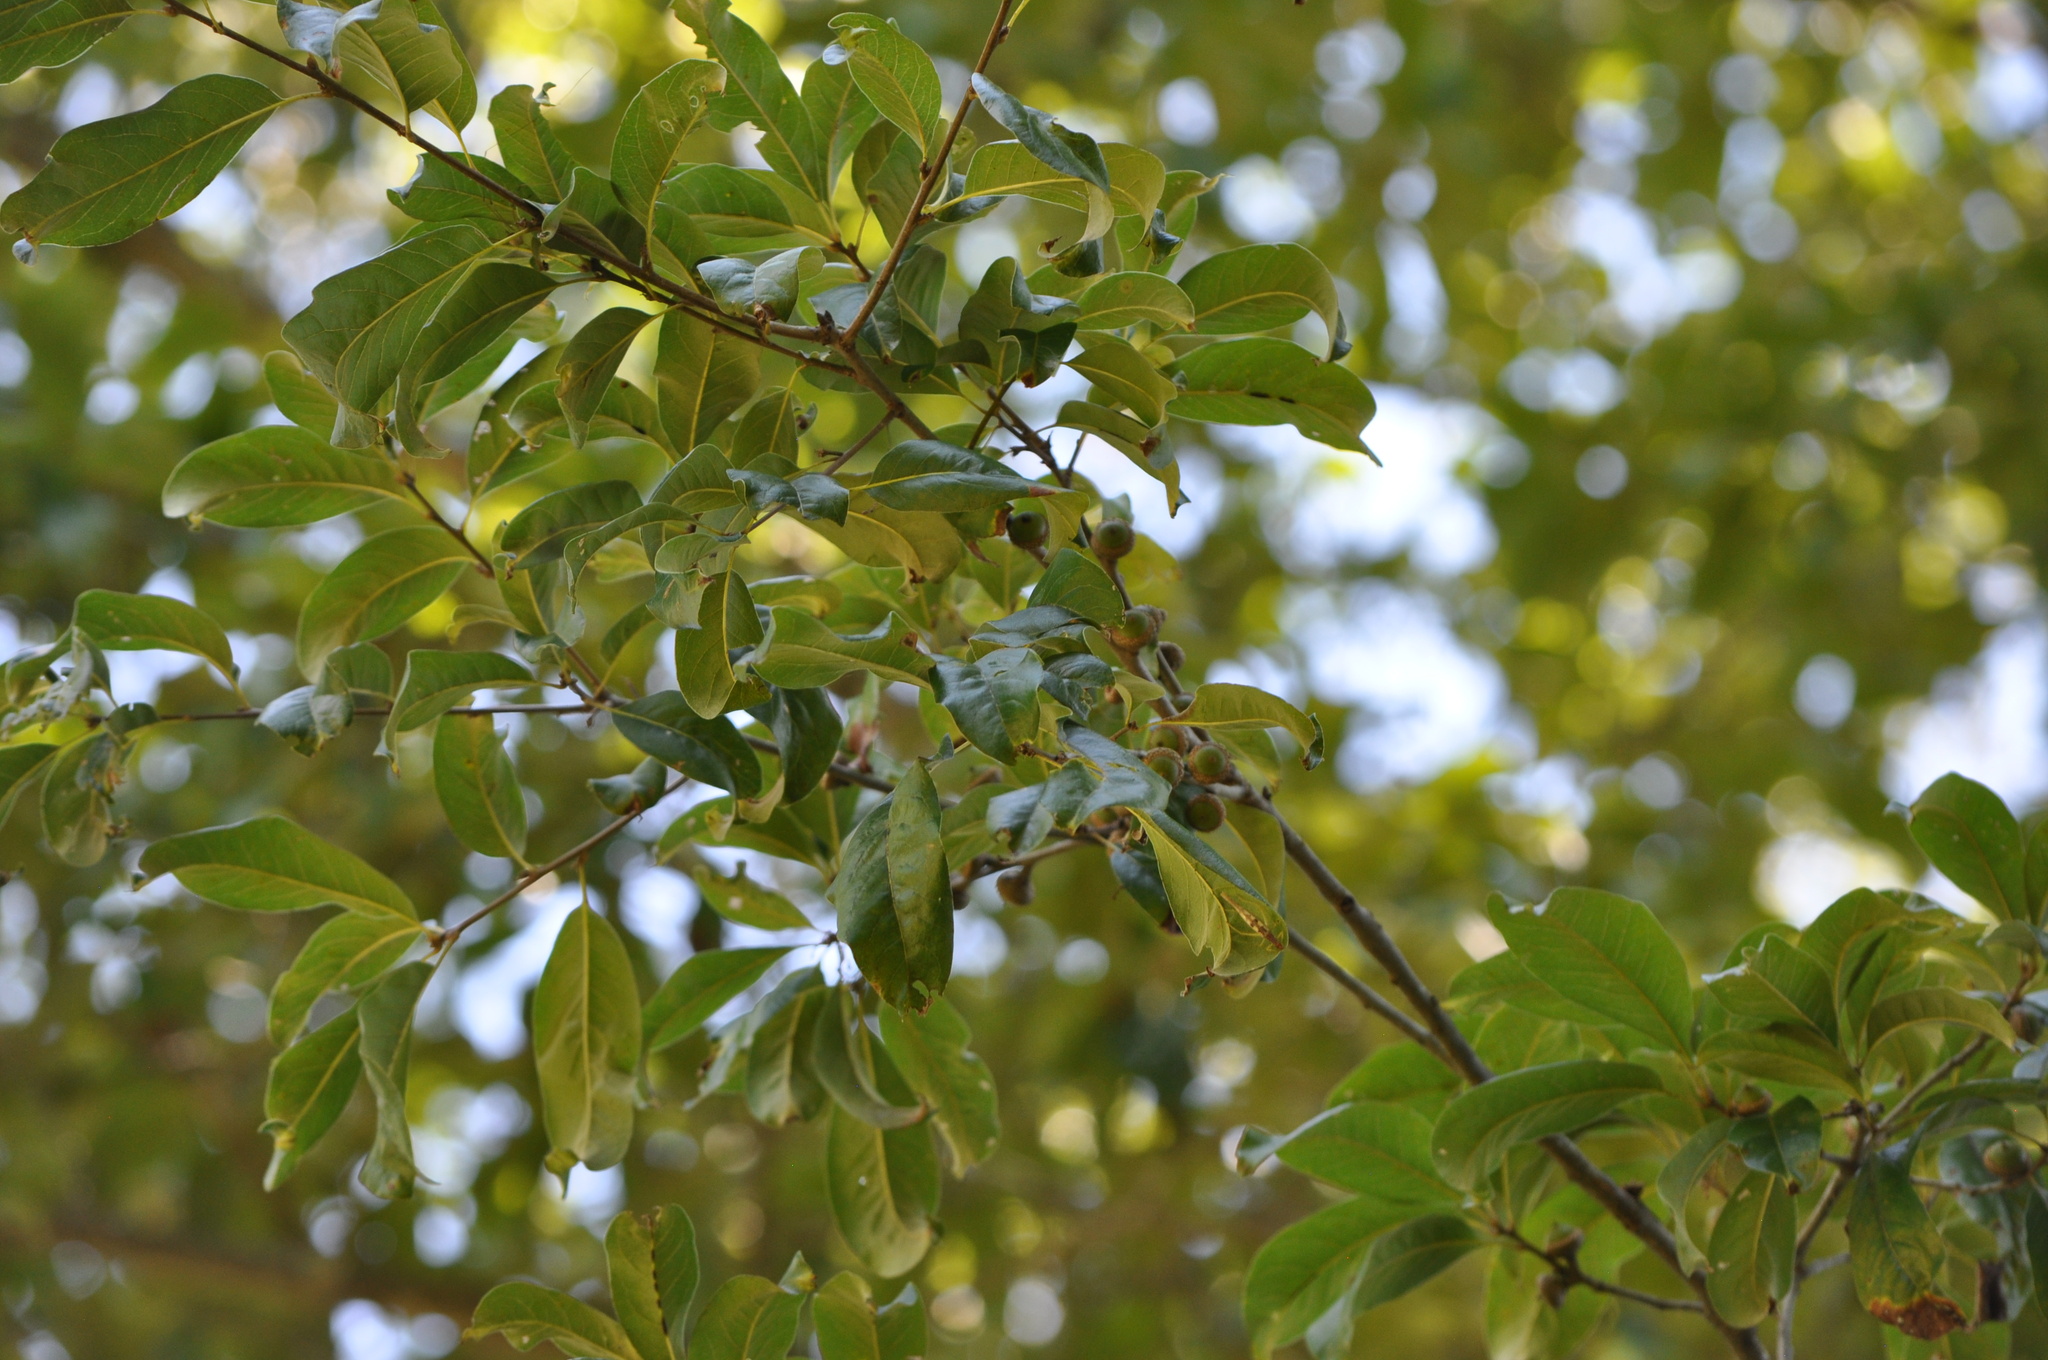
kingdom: Plantae
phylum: Tracheophyta
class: Magnoliopsida
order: Fagales
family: Fagaceae
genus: Quercus
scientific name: Quercus imbricaria
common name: Shingle oak
